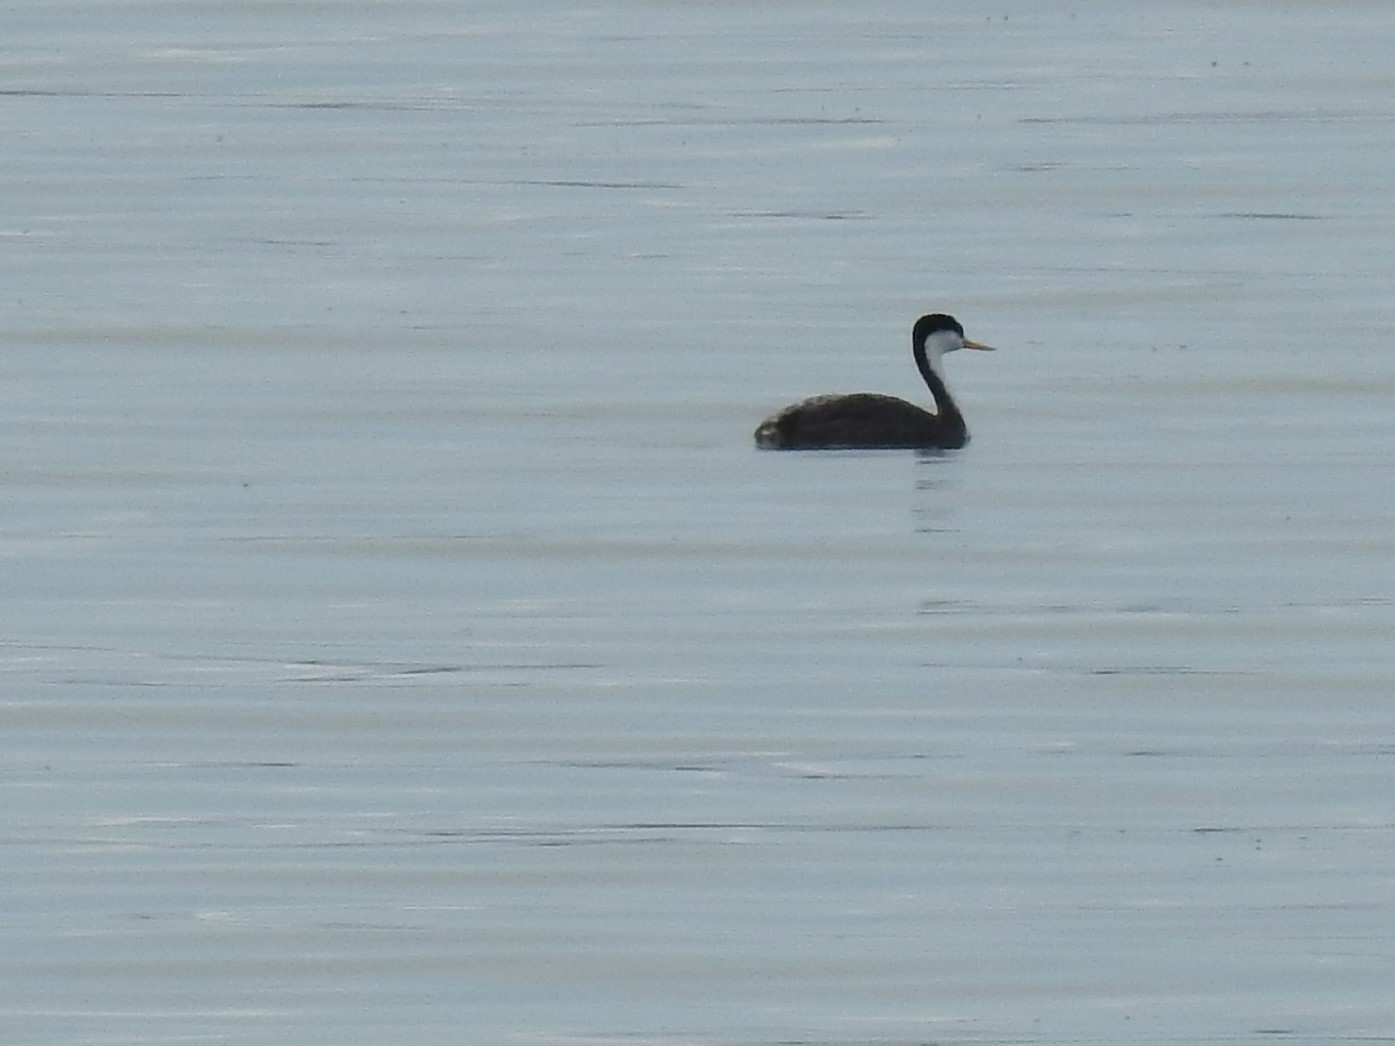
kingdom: Animalia
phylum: Chordata
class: Aves
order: Podicipediformes
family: Podicipedidae
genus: Aechmophorus
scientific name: Aechmophorus occidentalis
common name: Western grebe
